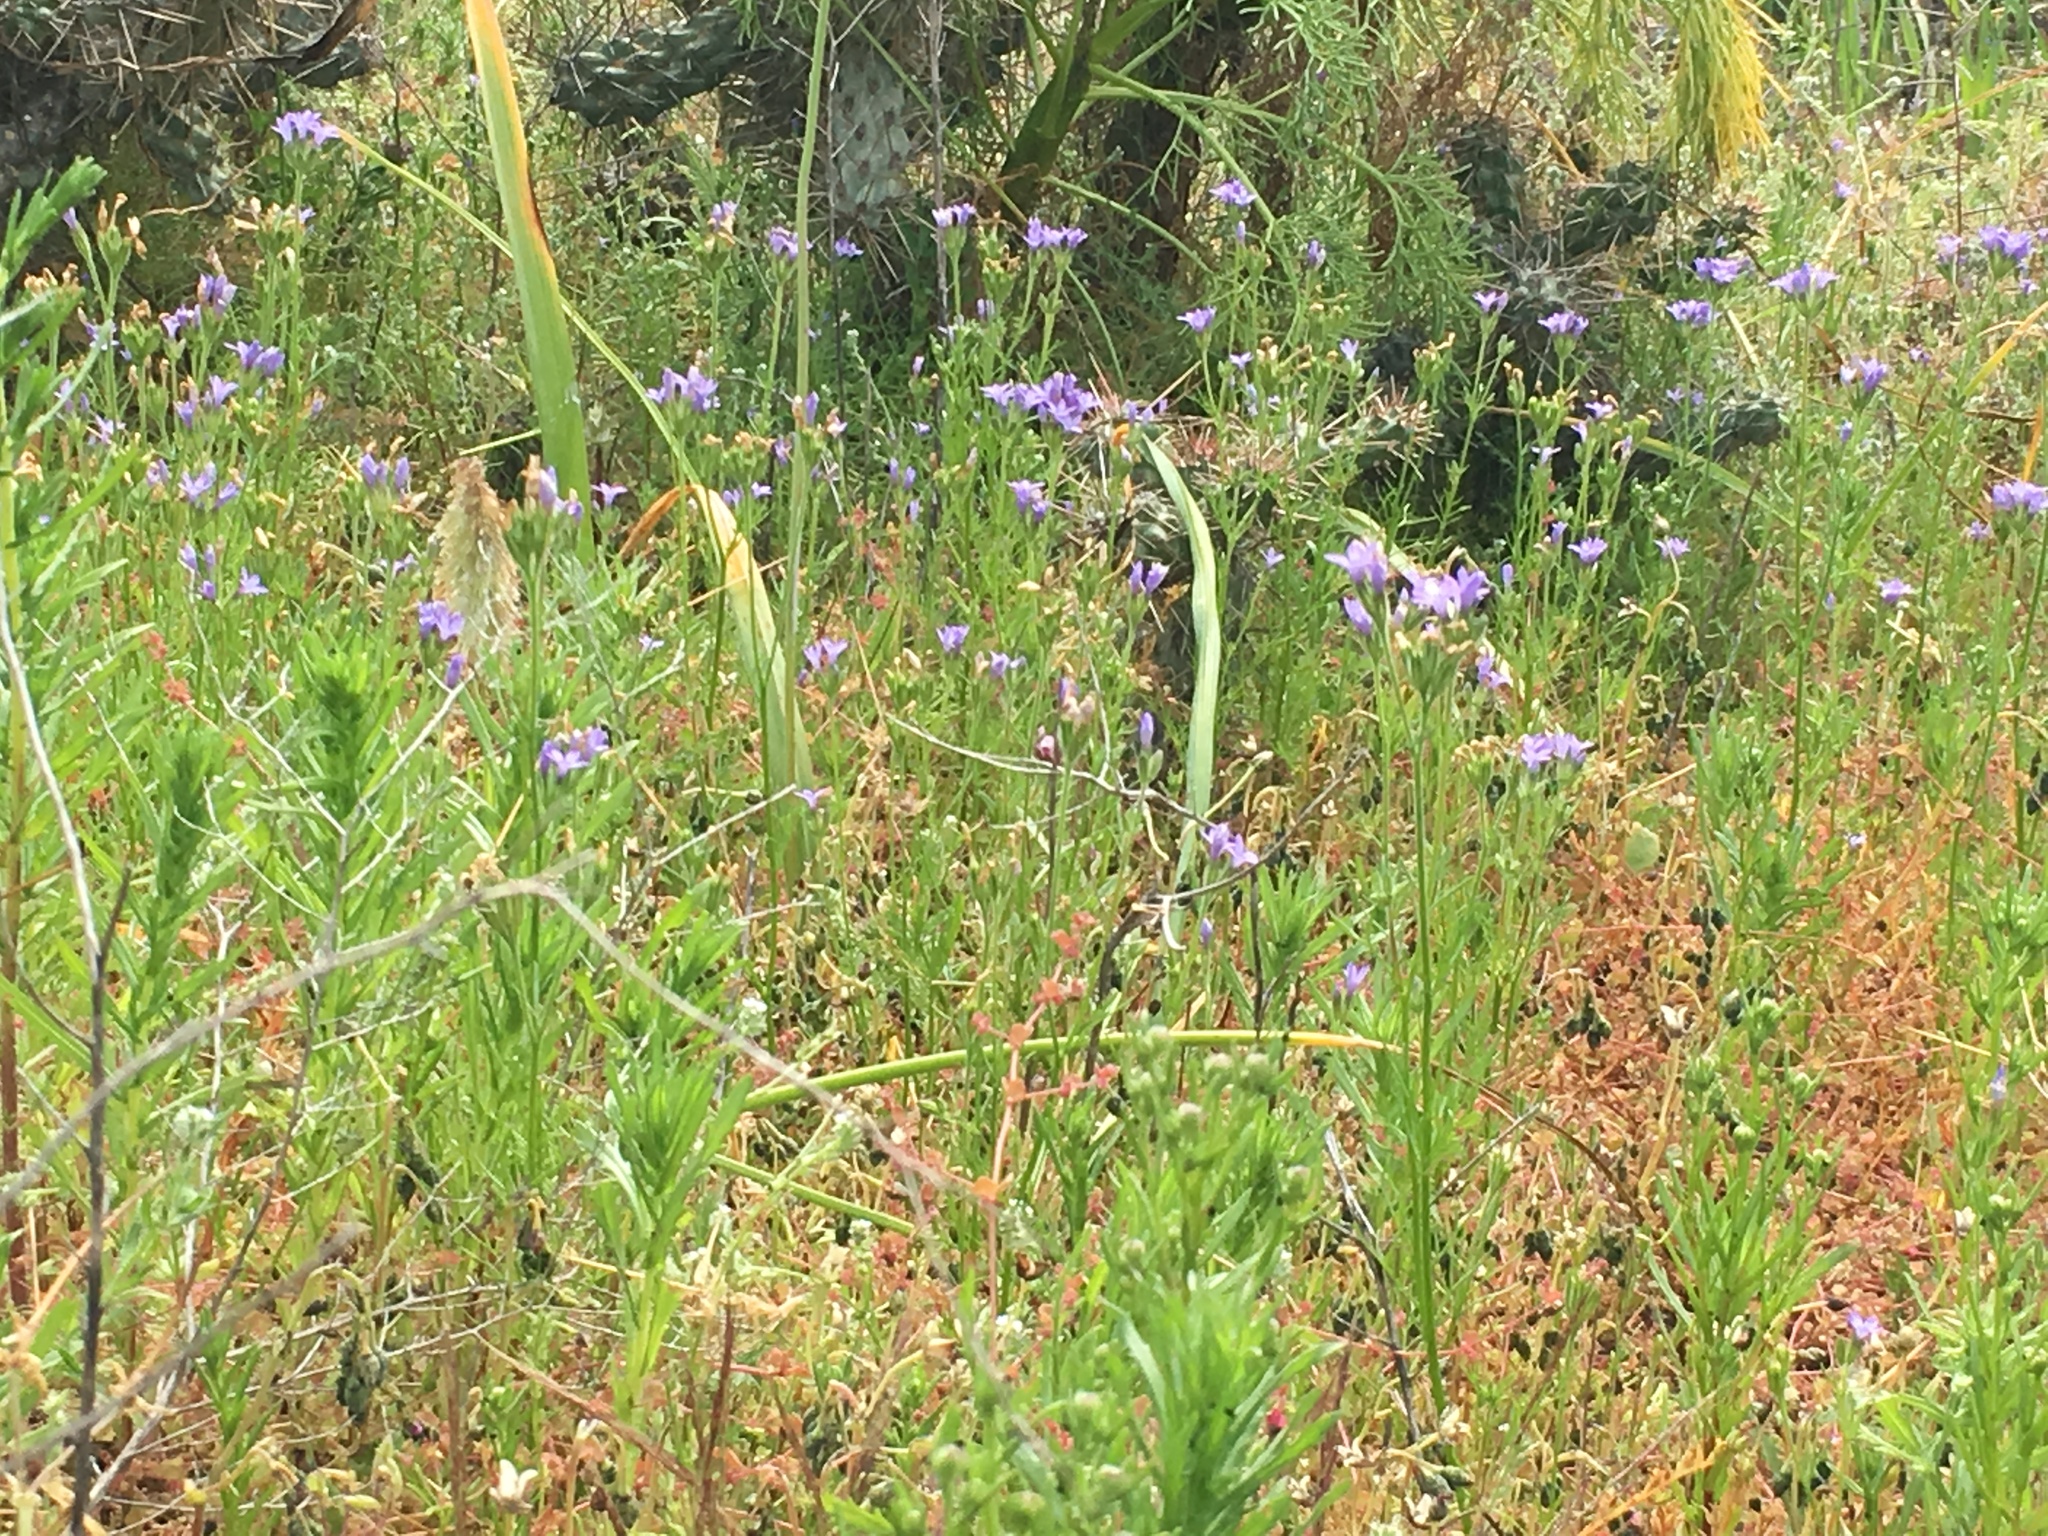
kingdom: Plantae
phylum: Tracheophyta
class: Magnoliopsida
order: Ericales
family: Polemoniaceae
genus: Gilia
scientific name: Gilia nevinii
